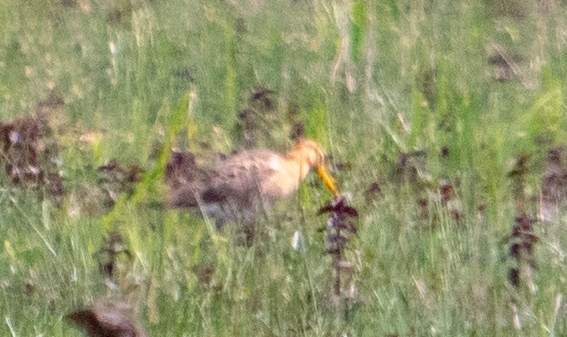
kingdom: Animalia
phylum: Chordata
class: Aves
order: Charadriiformes
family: Scolopacidae
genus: Limosa
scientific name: Limosa limosa
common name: Black-tailed godwit
